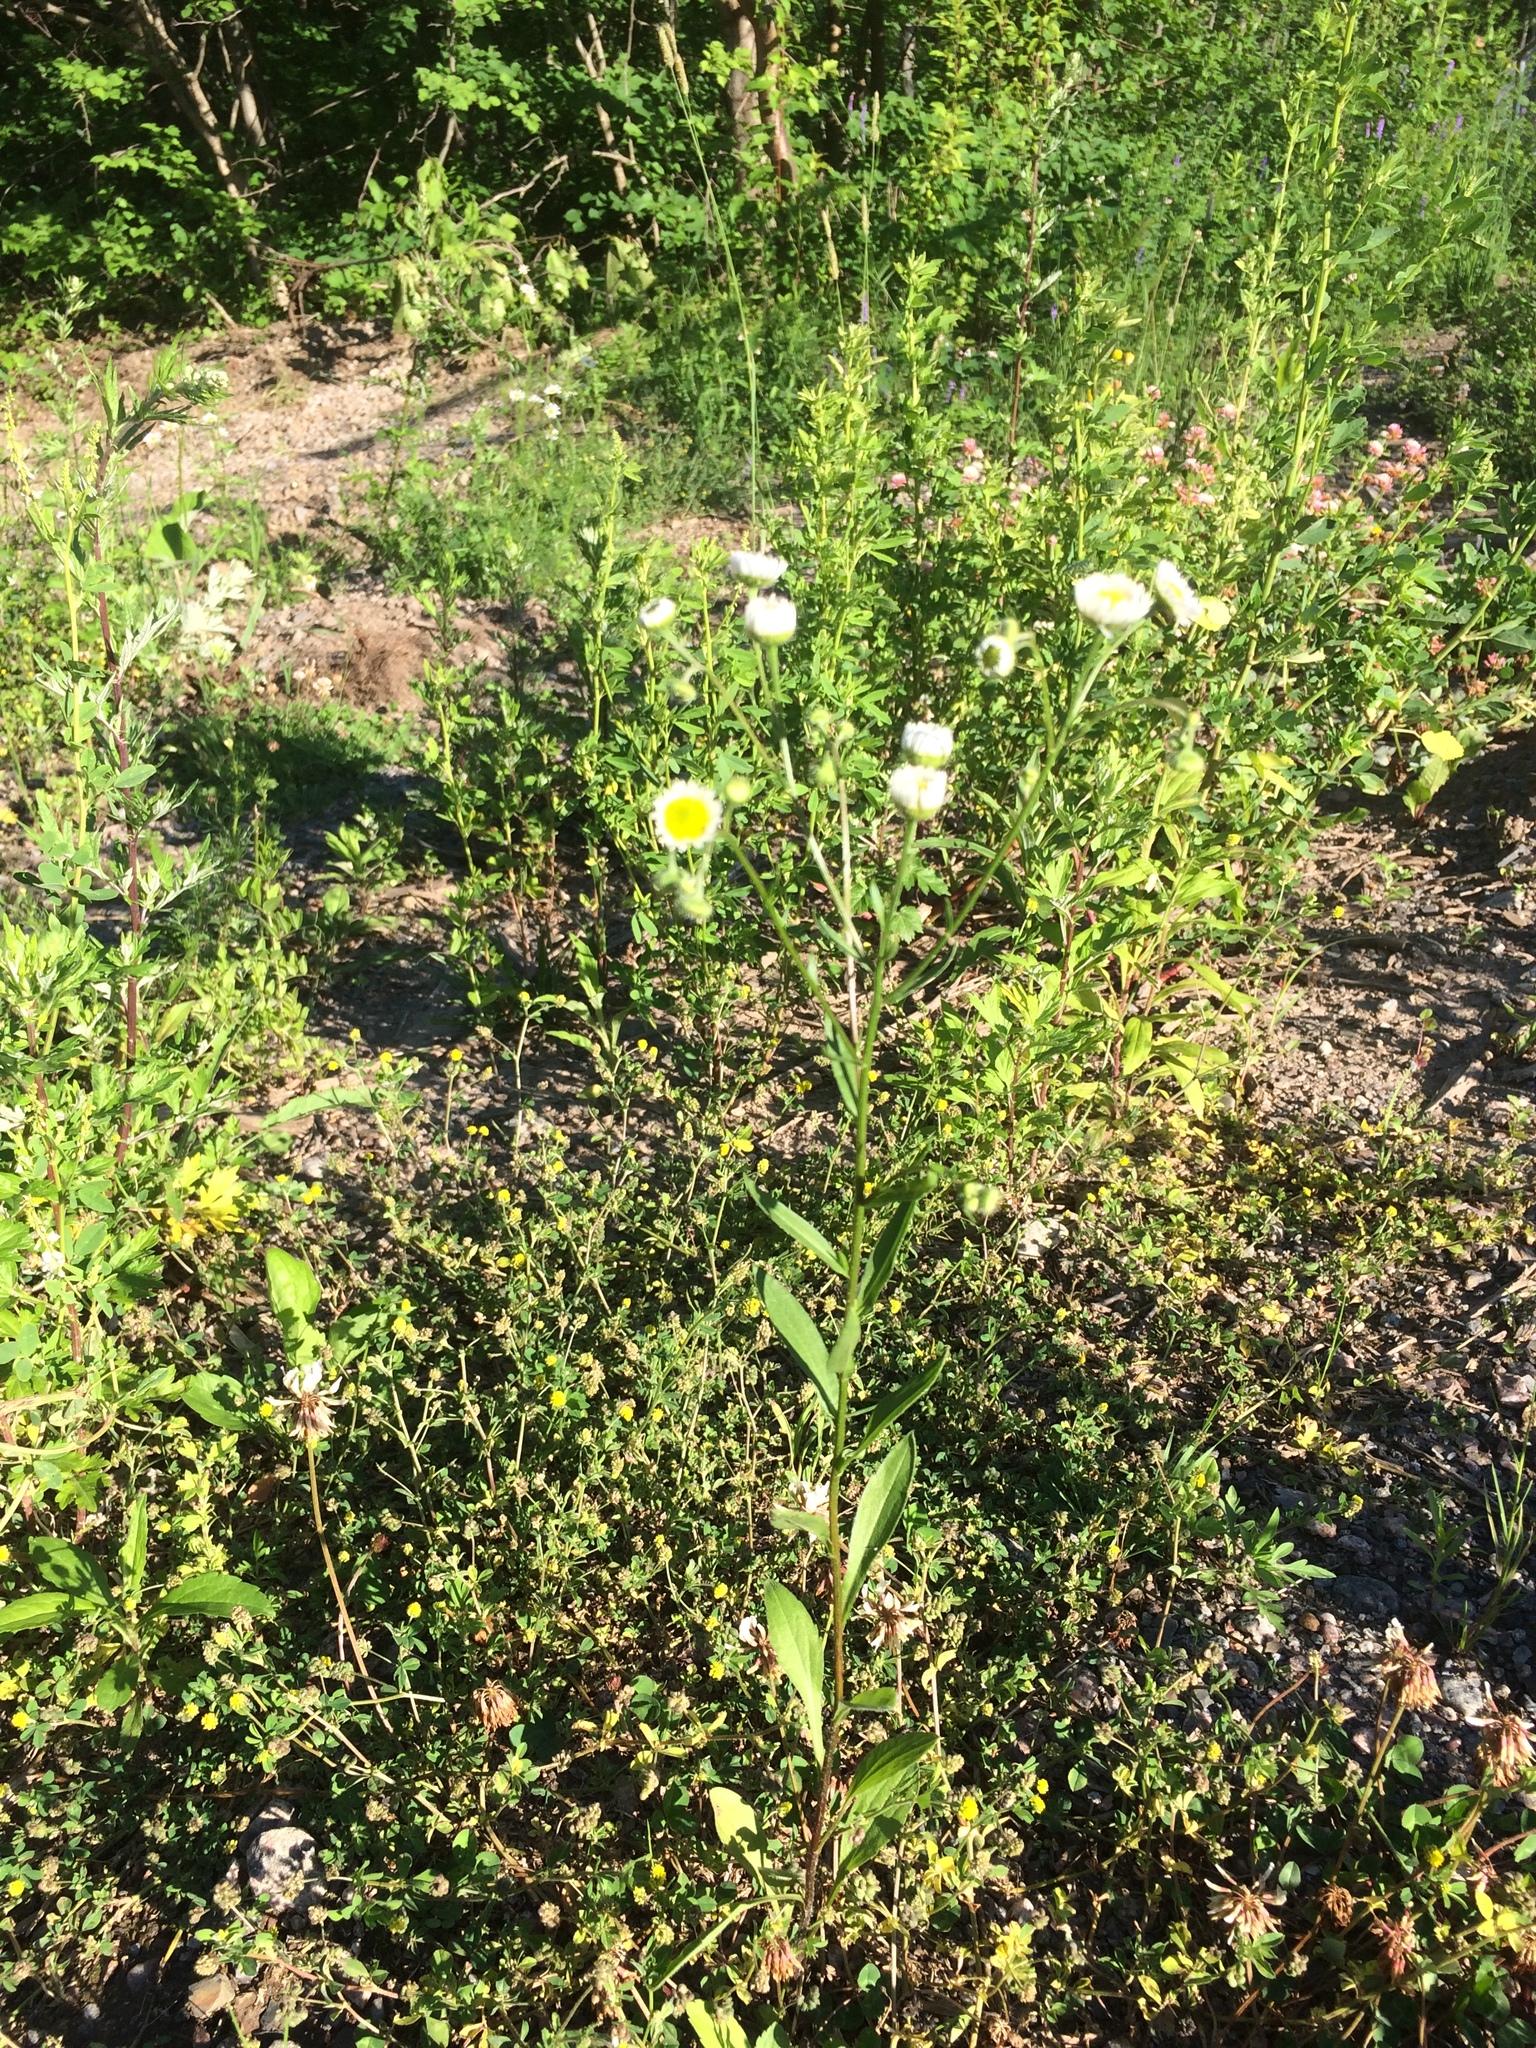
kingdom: Plantae
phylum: Tracheophyta
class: Magnoliopsida
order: Asterales
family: Asteraceae
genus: Erigeron
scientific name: Erigeron annuus
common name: Tall fleabane
